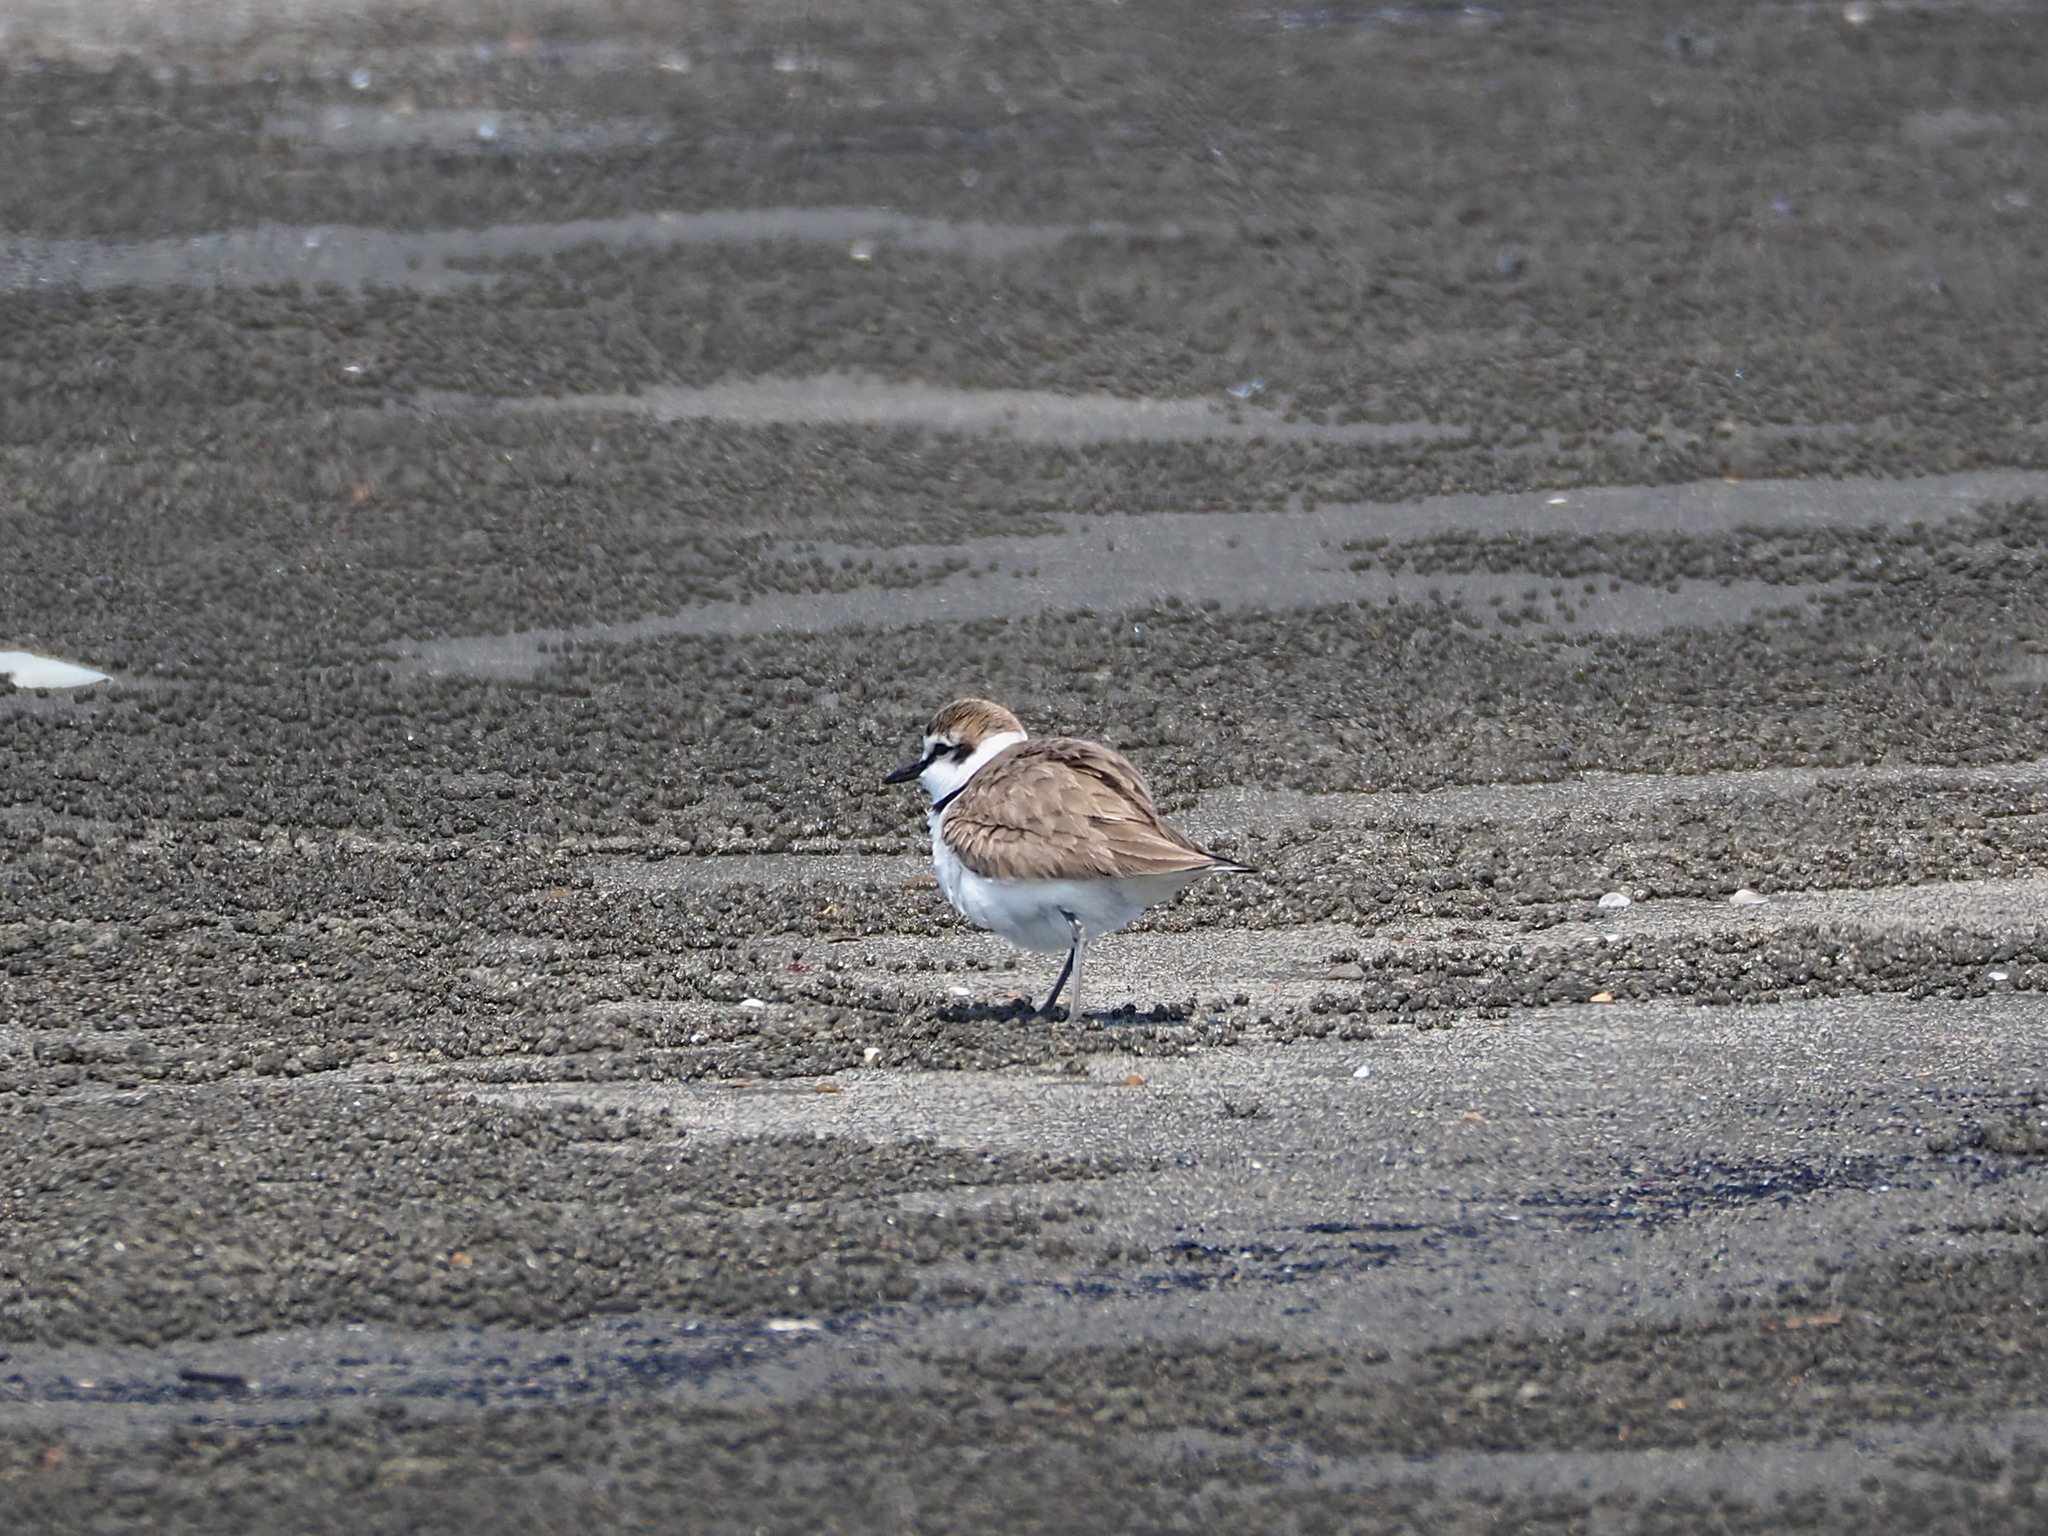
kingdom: Animalia
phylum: Chordata
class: Aves
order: Charadriiformes
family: Charadriidae
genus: Charadrius
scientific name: Charadrius alexandrinus
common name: Kentish plover
